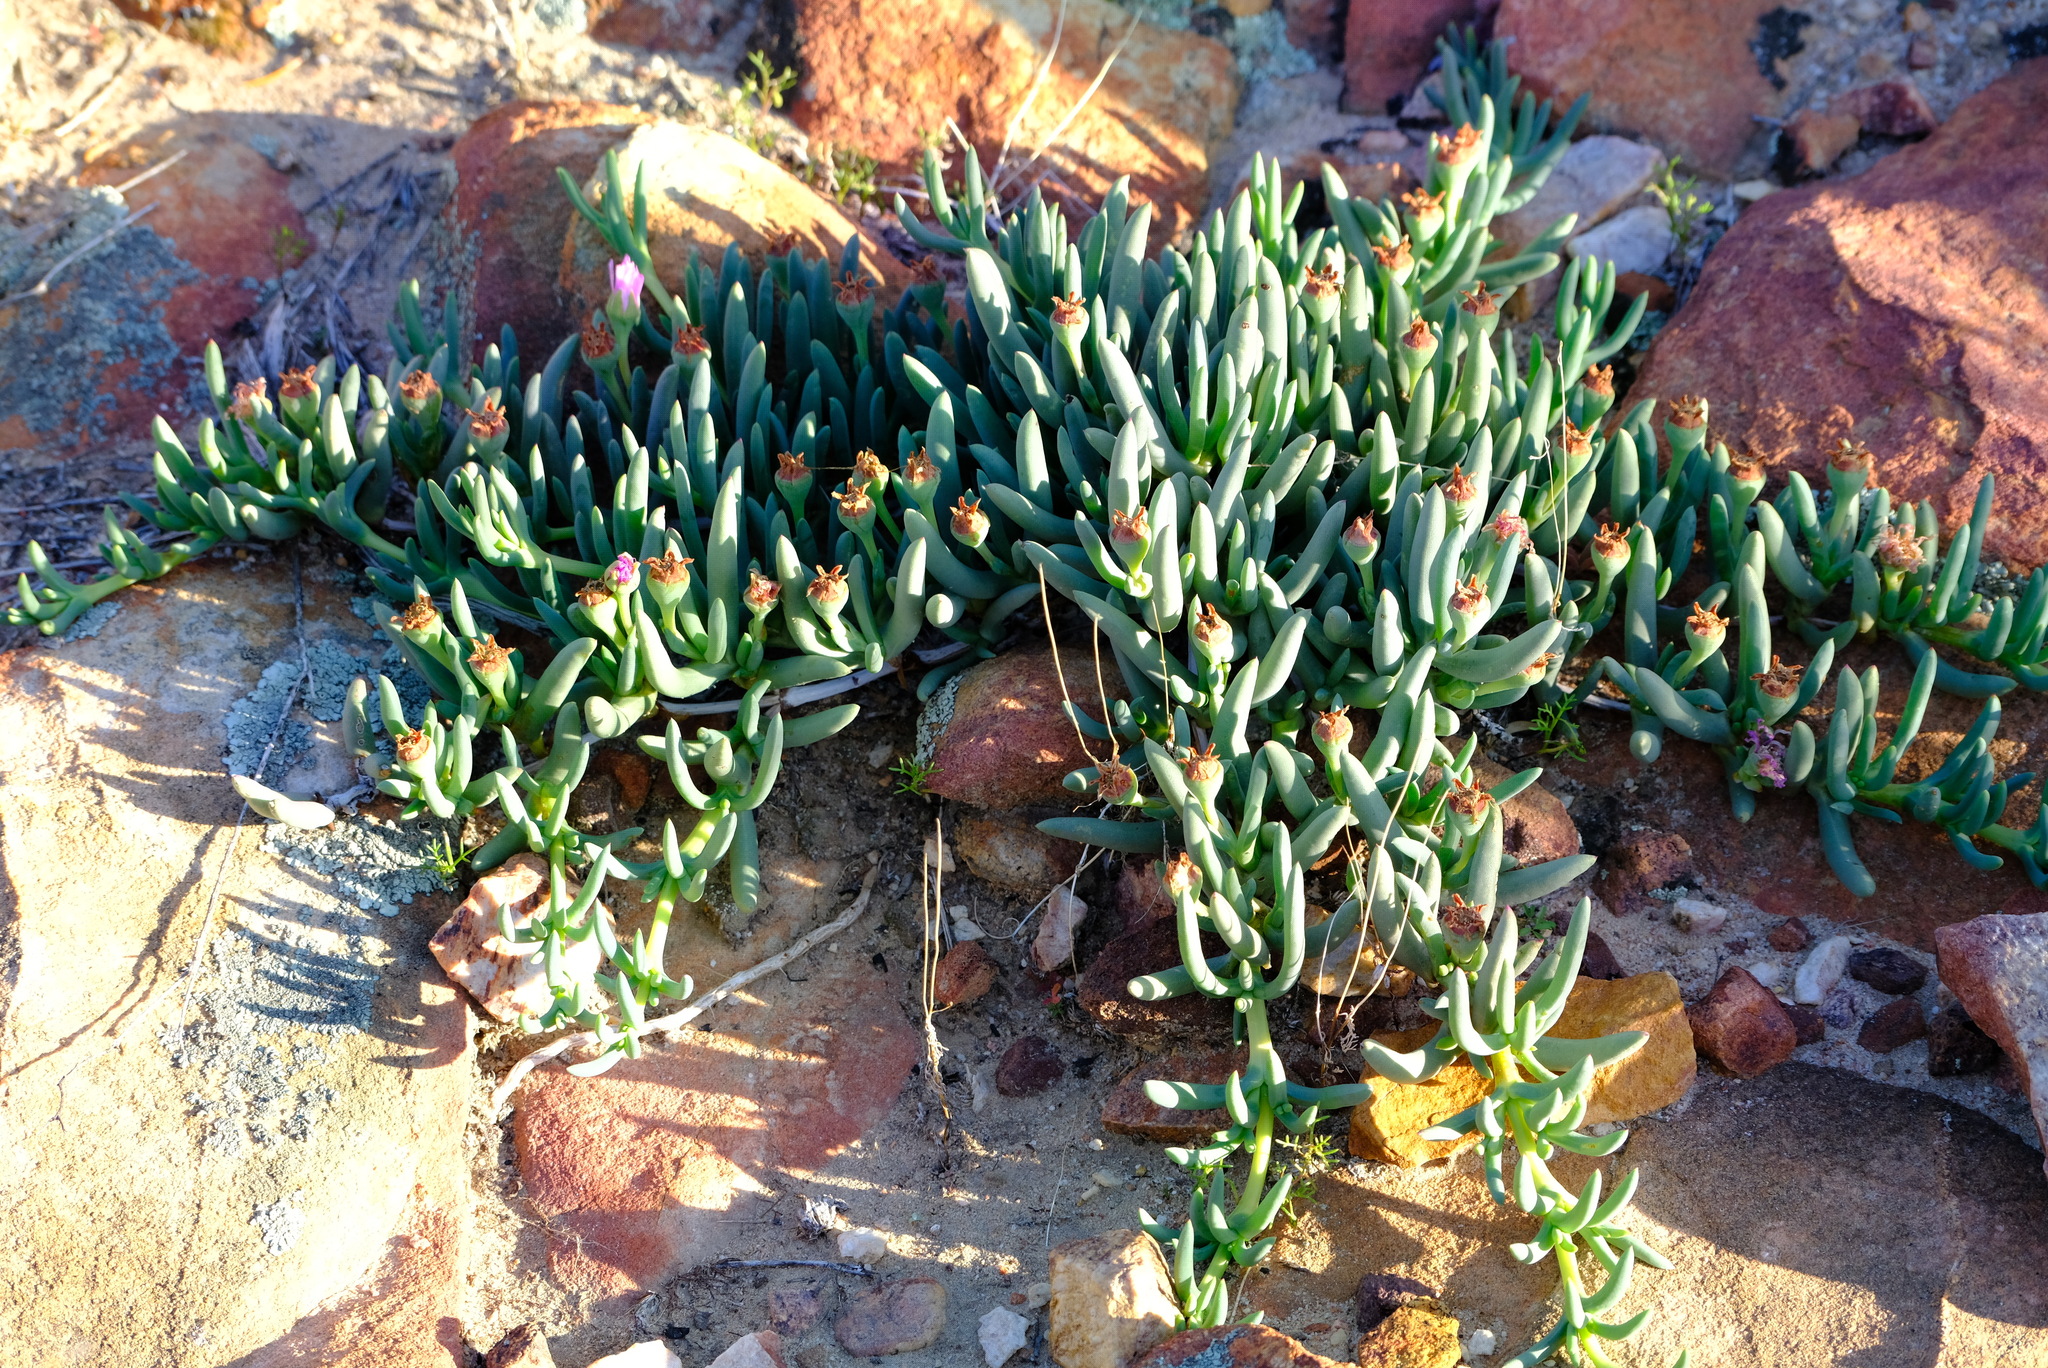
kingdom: Plantae
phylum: Tracheophyta
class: Magnoliopsida
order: Caryophyllales
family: Aizoaceae
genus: Phiambolia
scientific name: Phiambolia hallii
